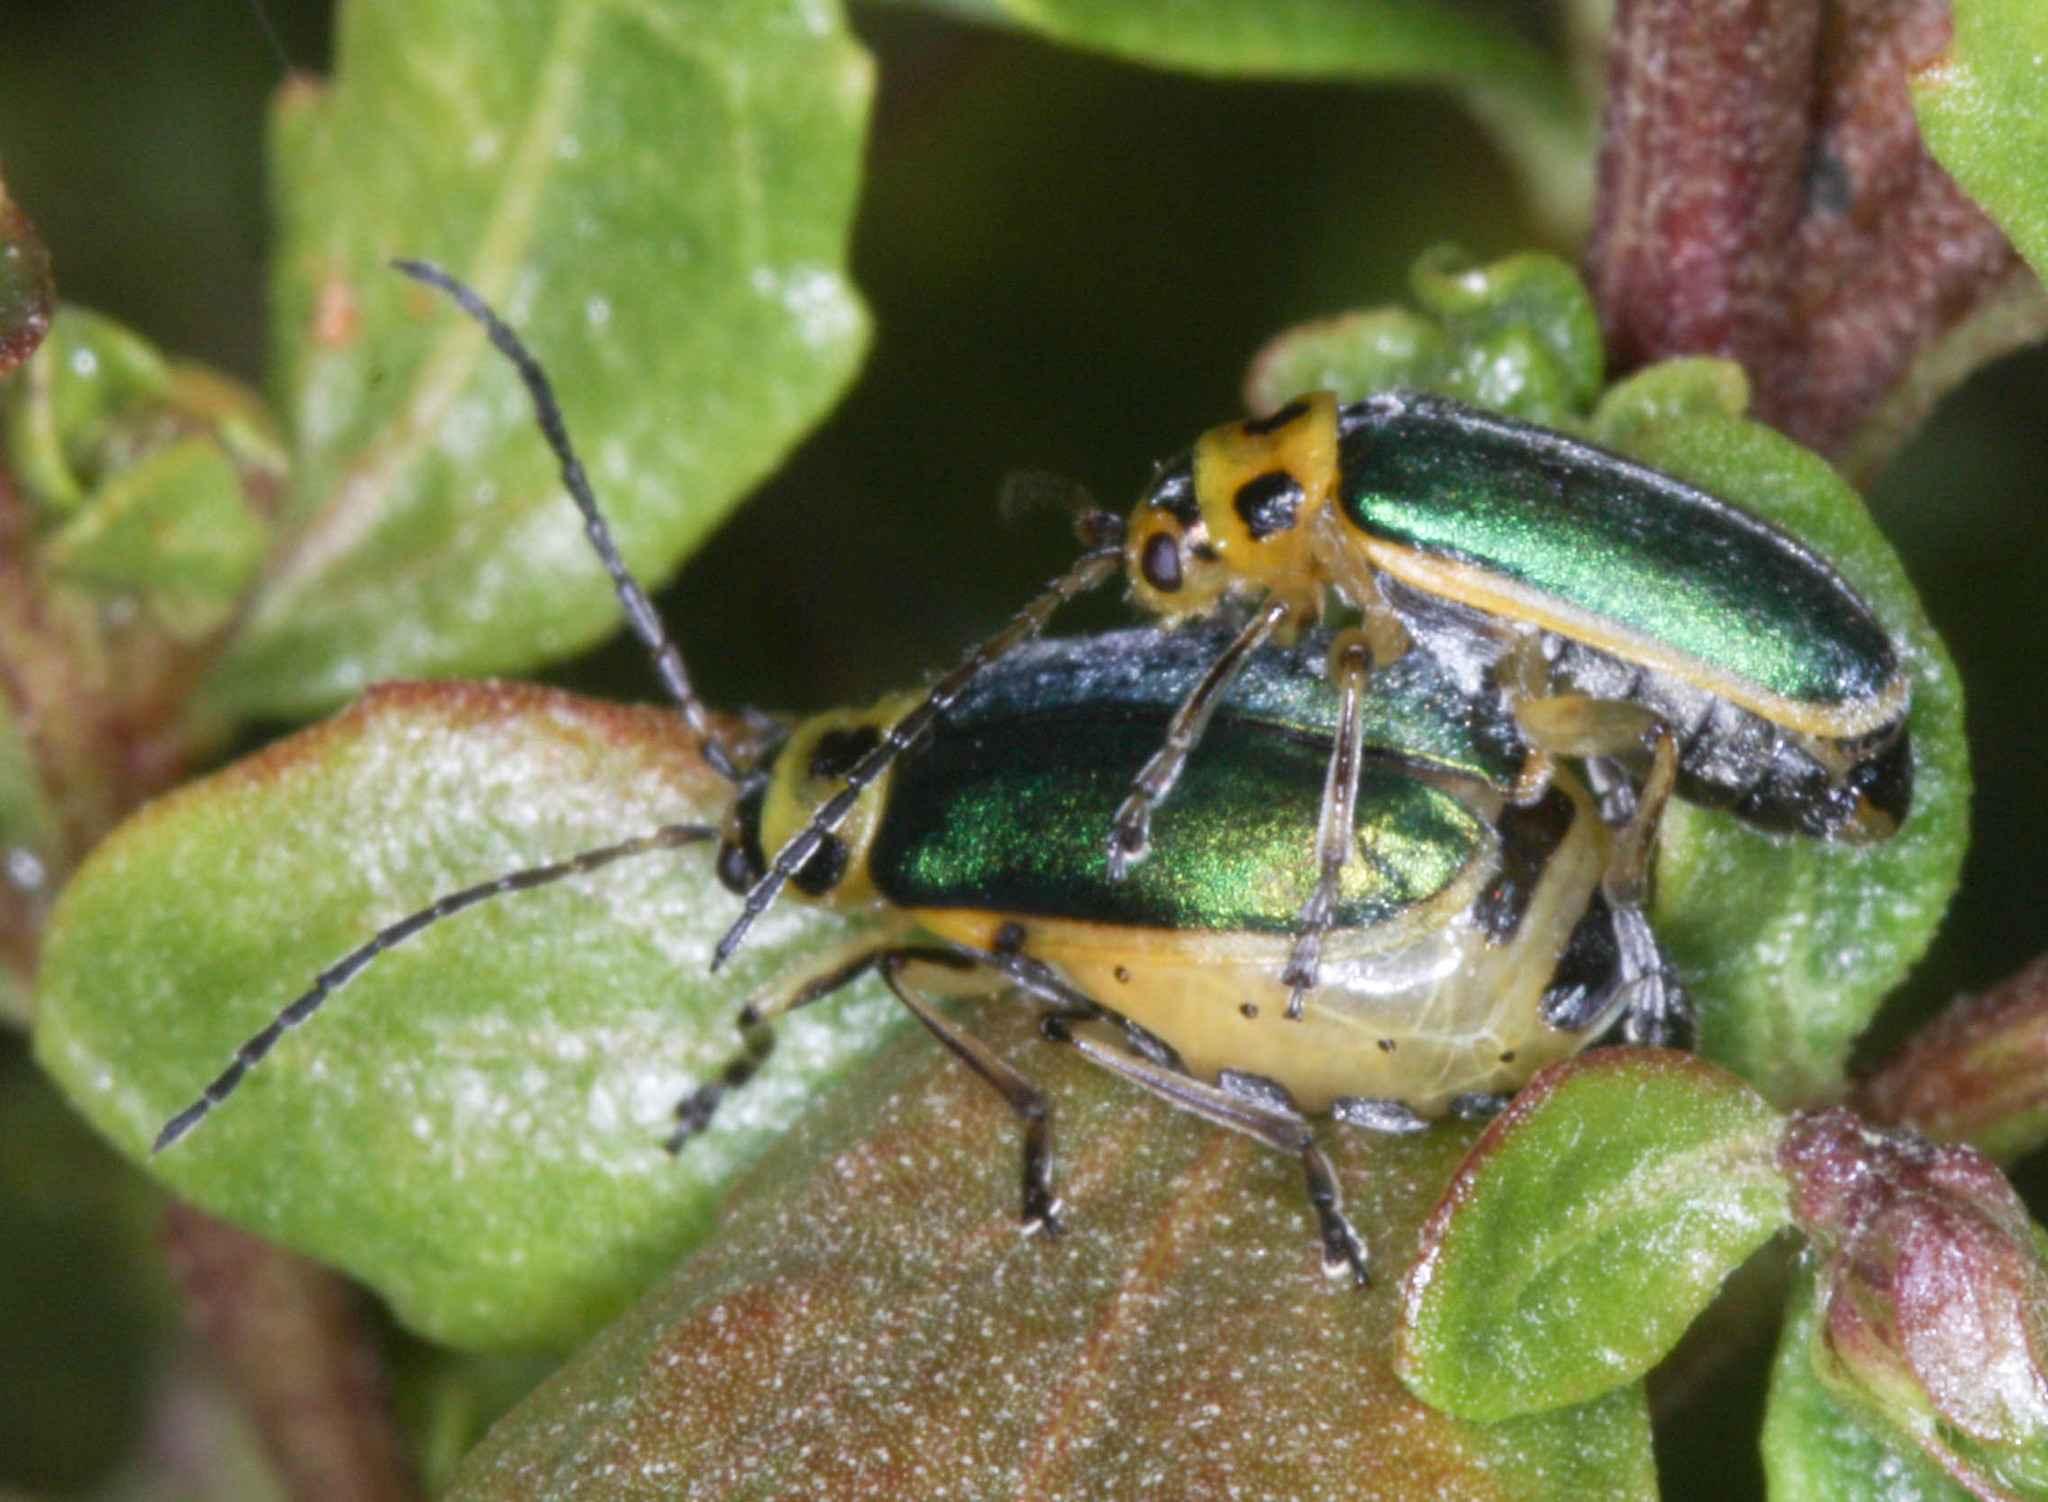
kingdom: Animalia
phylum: Arthropoda
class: Insecta
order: Coleoptera
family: Chrysomelidae
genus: Trirhabda
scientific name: Trirhabda flavolimbata
